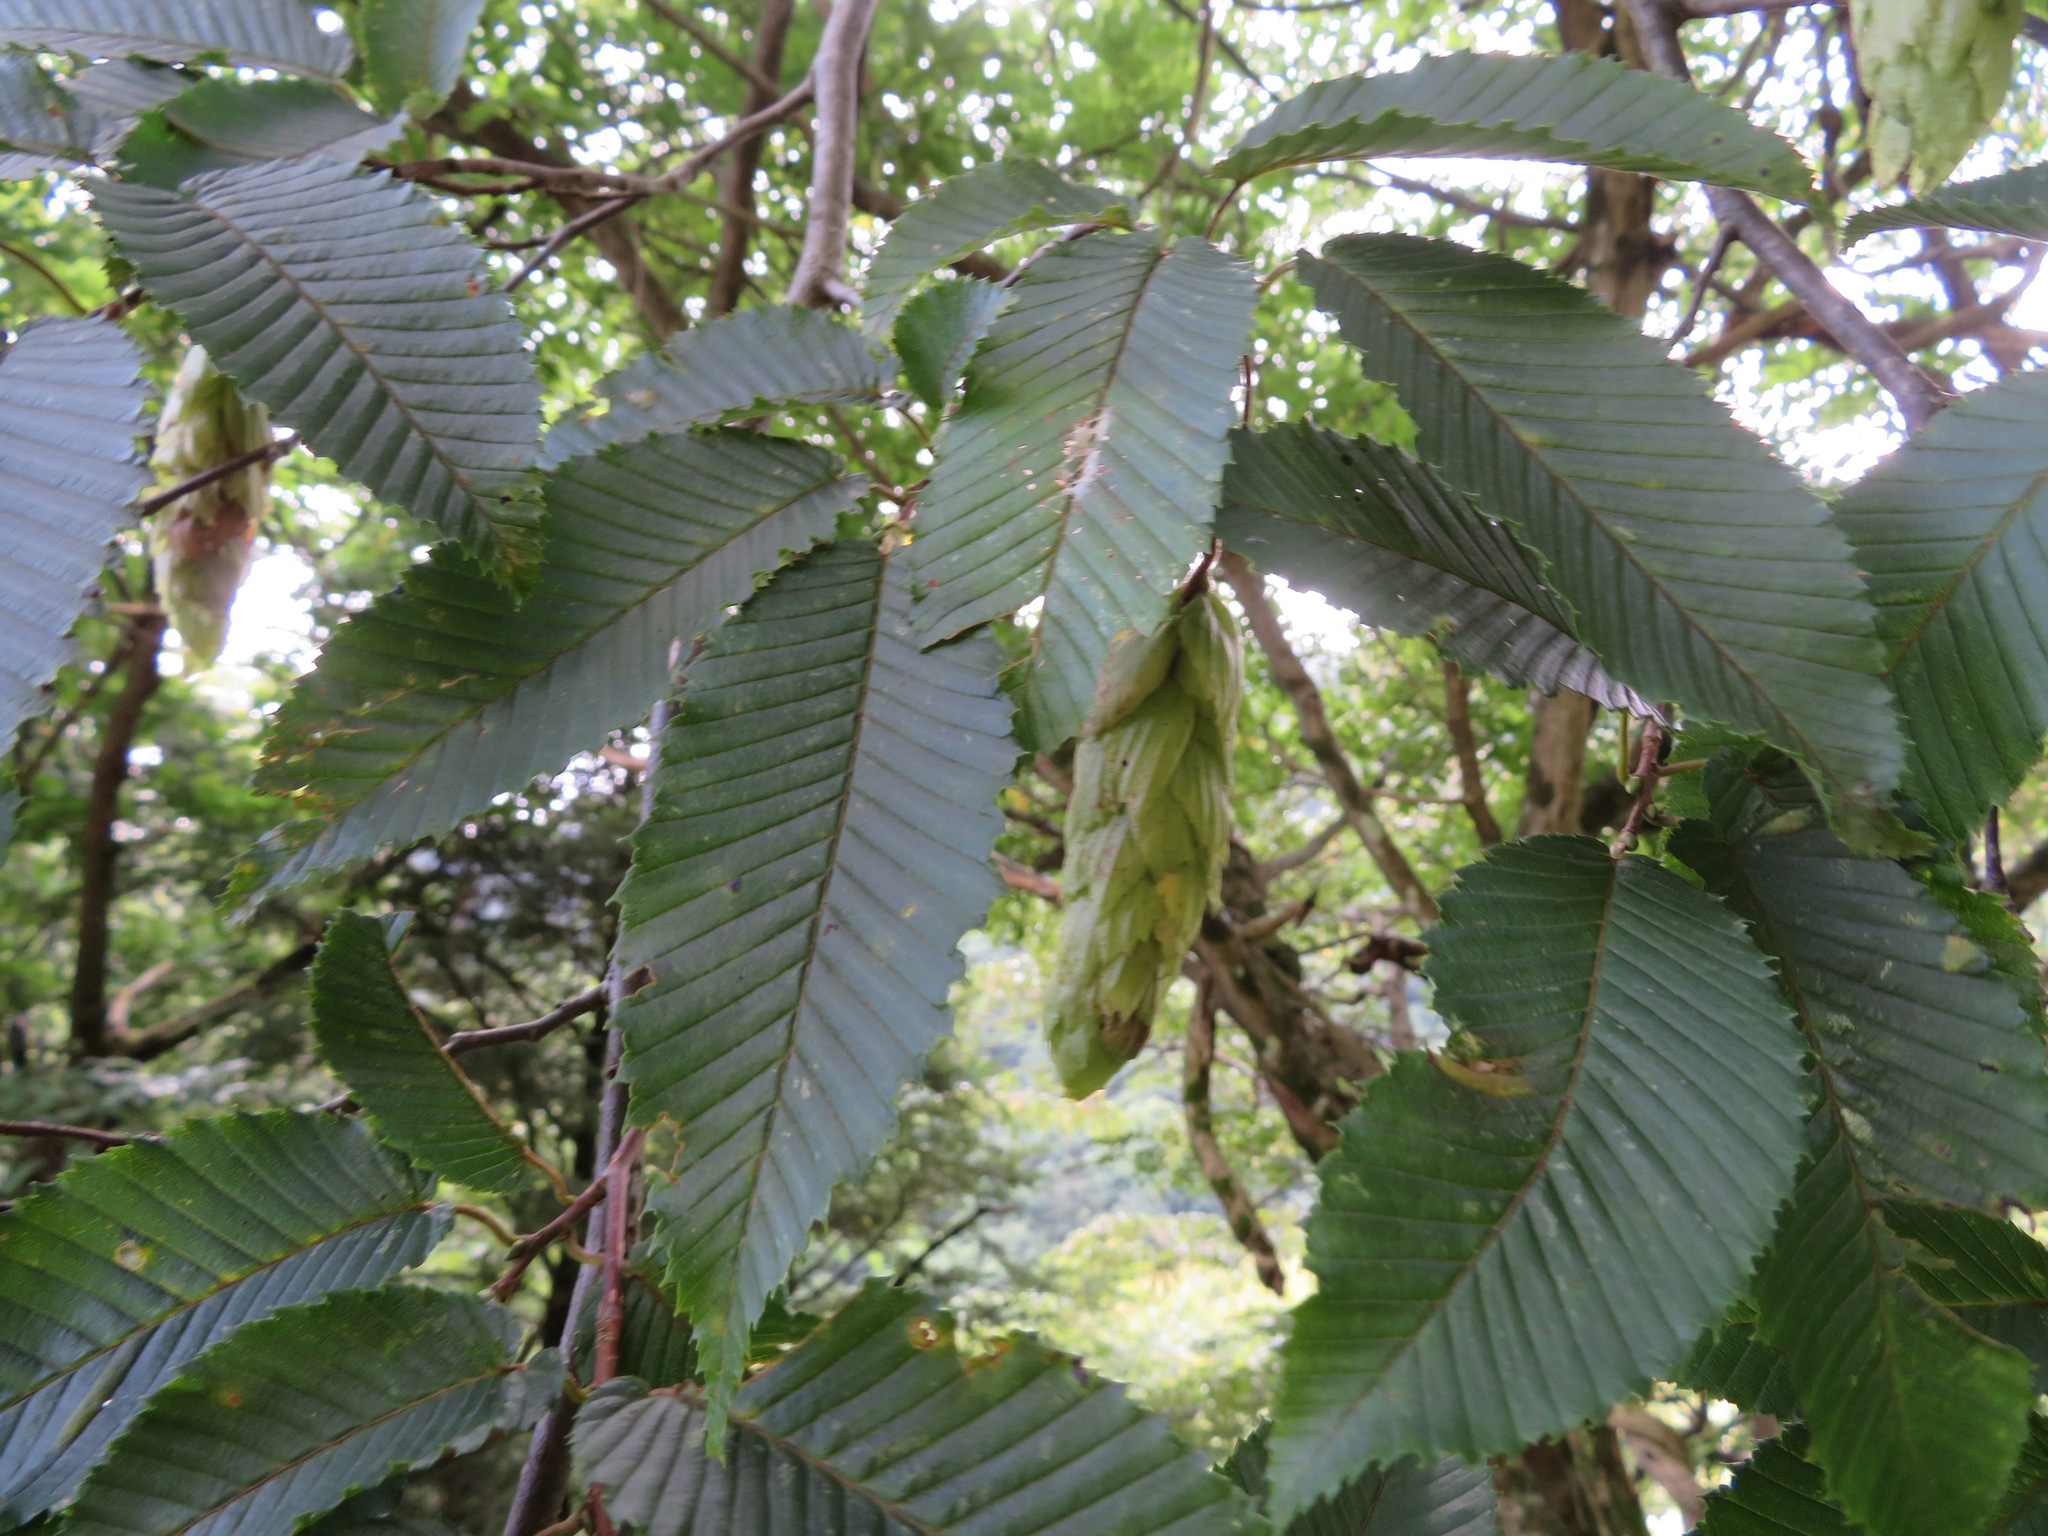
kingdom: Plantae
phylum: Tracheophyta
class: Magnoliopsida
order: Fagales
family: Betulaceae
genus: Carpinus
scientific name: Carpinus japonica
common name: Japanese hornbeam
